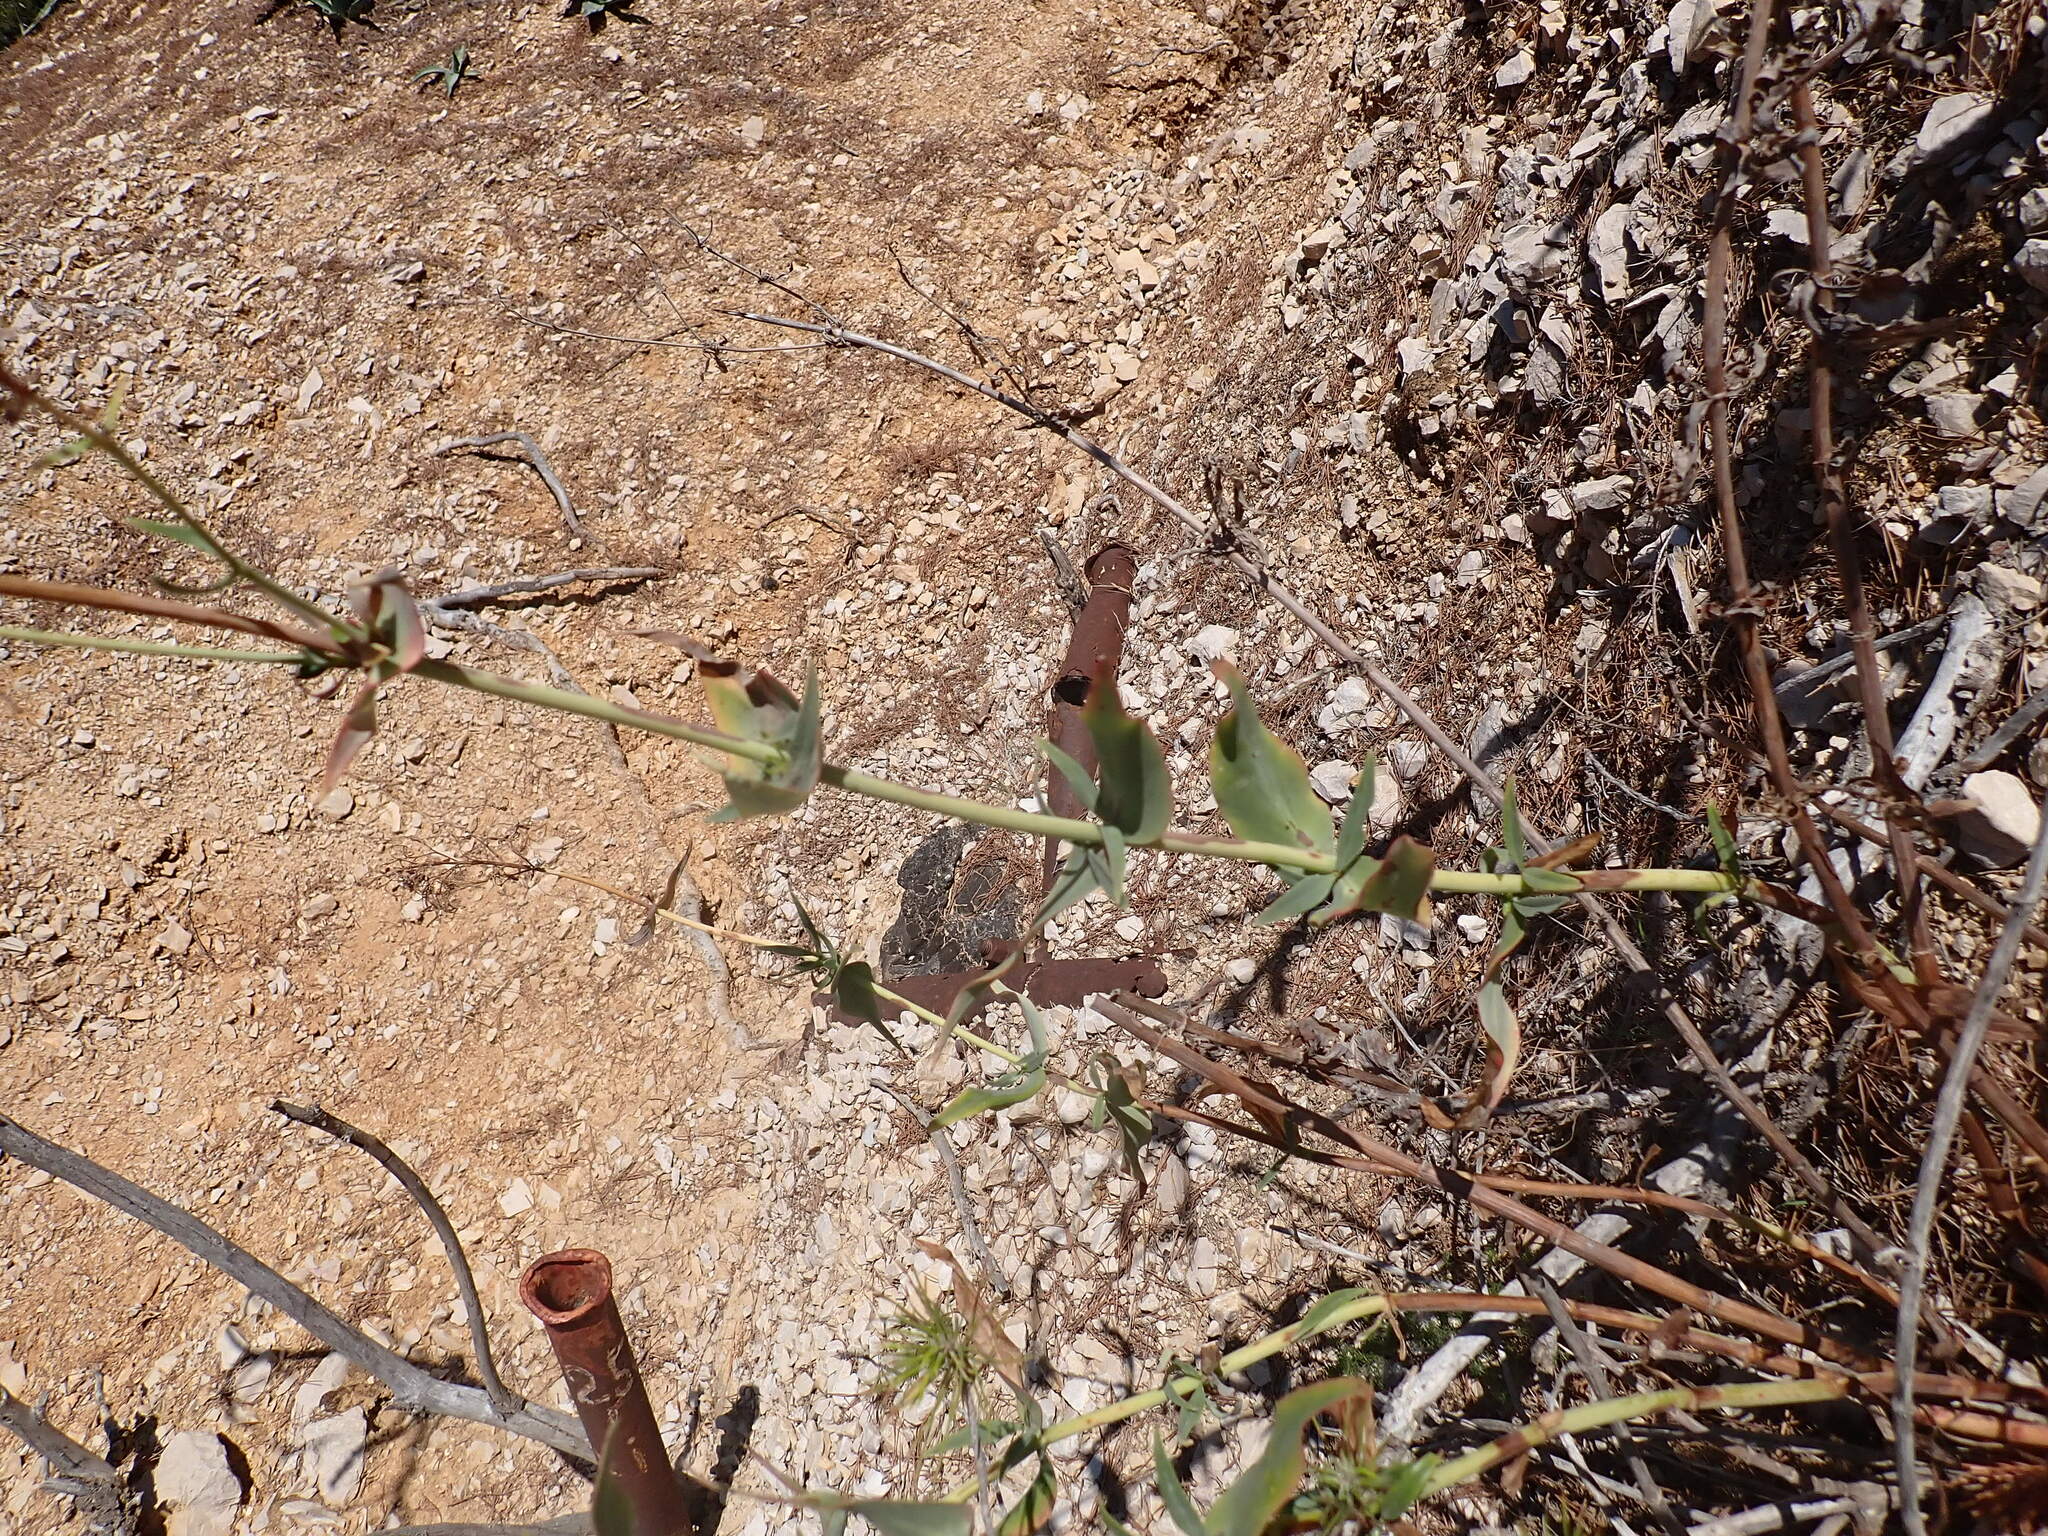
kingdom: Plantae
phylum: Tracheophyta
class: Magnoliopsida
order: Dipsacales
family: Caprifoliaceae
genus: Centranthus
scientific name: Centranthus ruber
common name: Red valerian
